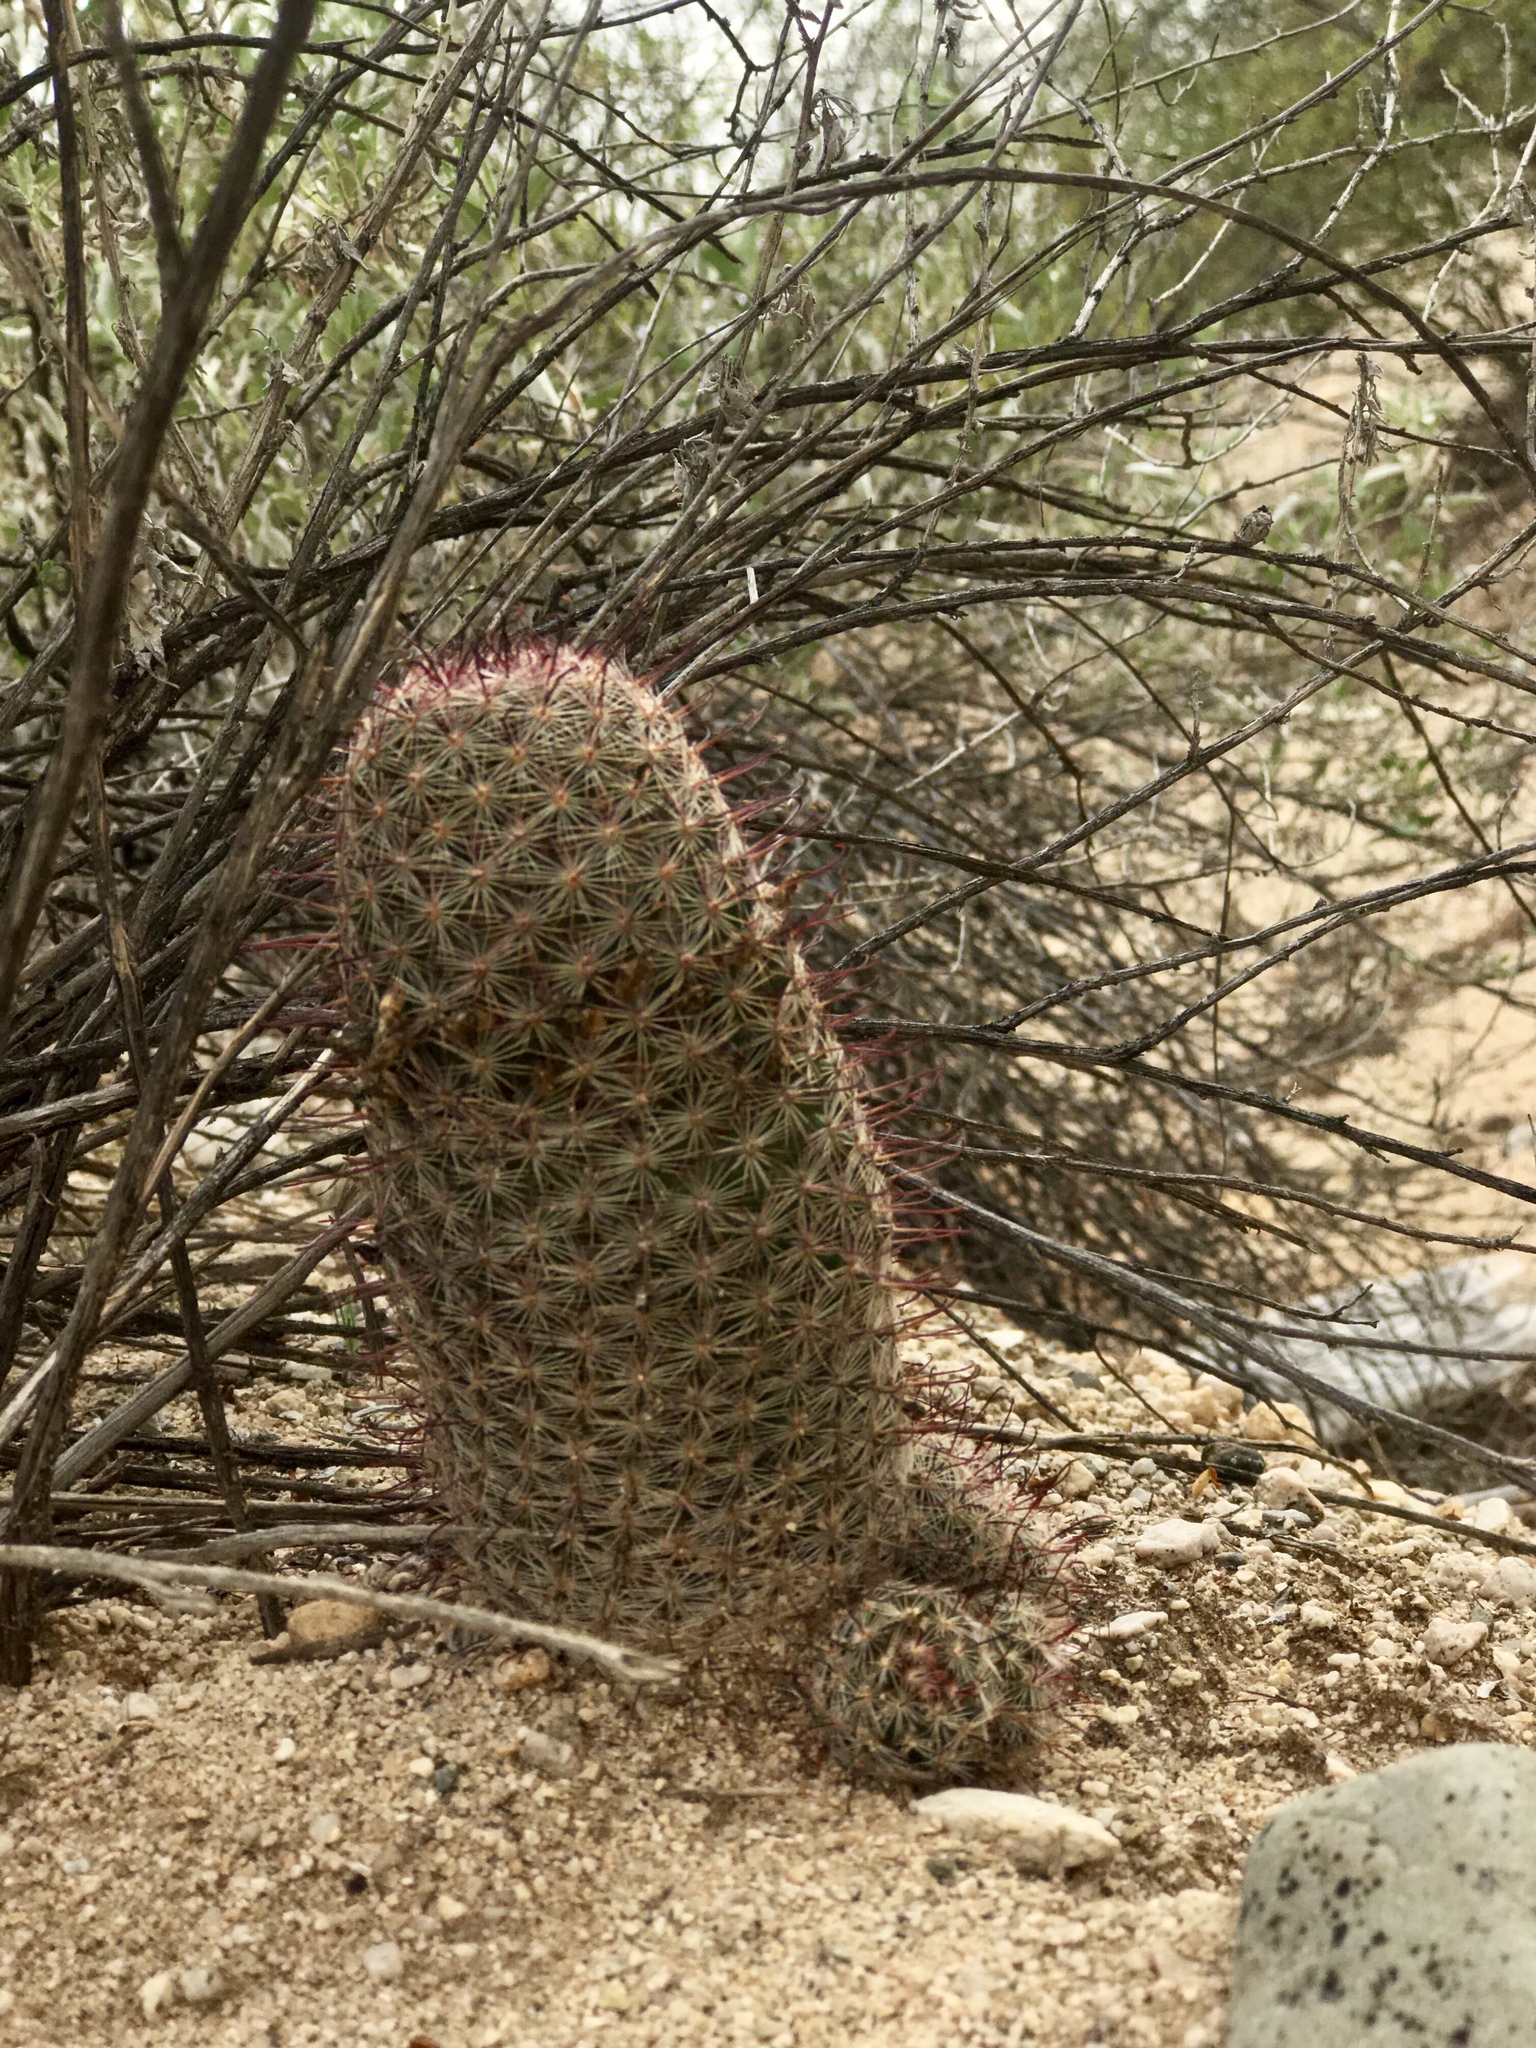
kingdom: Plantae
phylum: Tracheophyta
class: Magnoliopsida
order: Caryophyllales
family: Cactaceae
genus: Cochemiea
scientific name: Cochemiea grahamii
